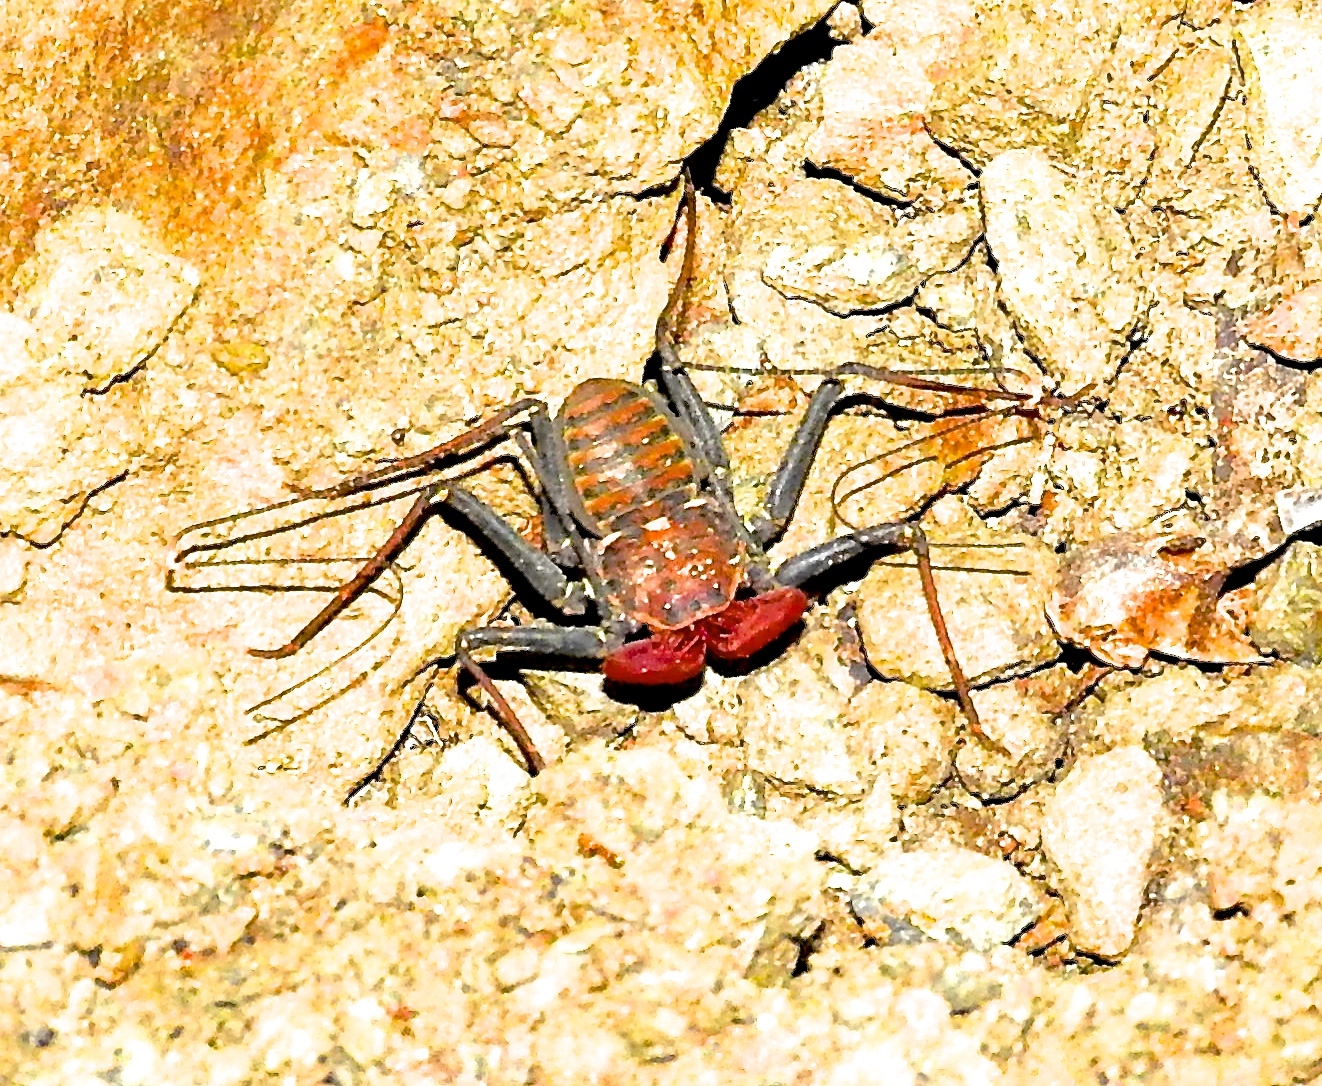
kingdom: Animalia
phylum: Arthropoda
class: Arachnida
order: Amblypygi
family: Phrynidae
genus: Phrynus
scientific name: Phrynus operculatus
